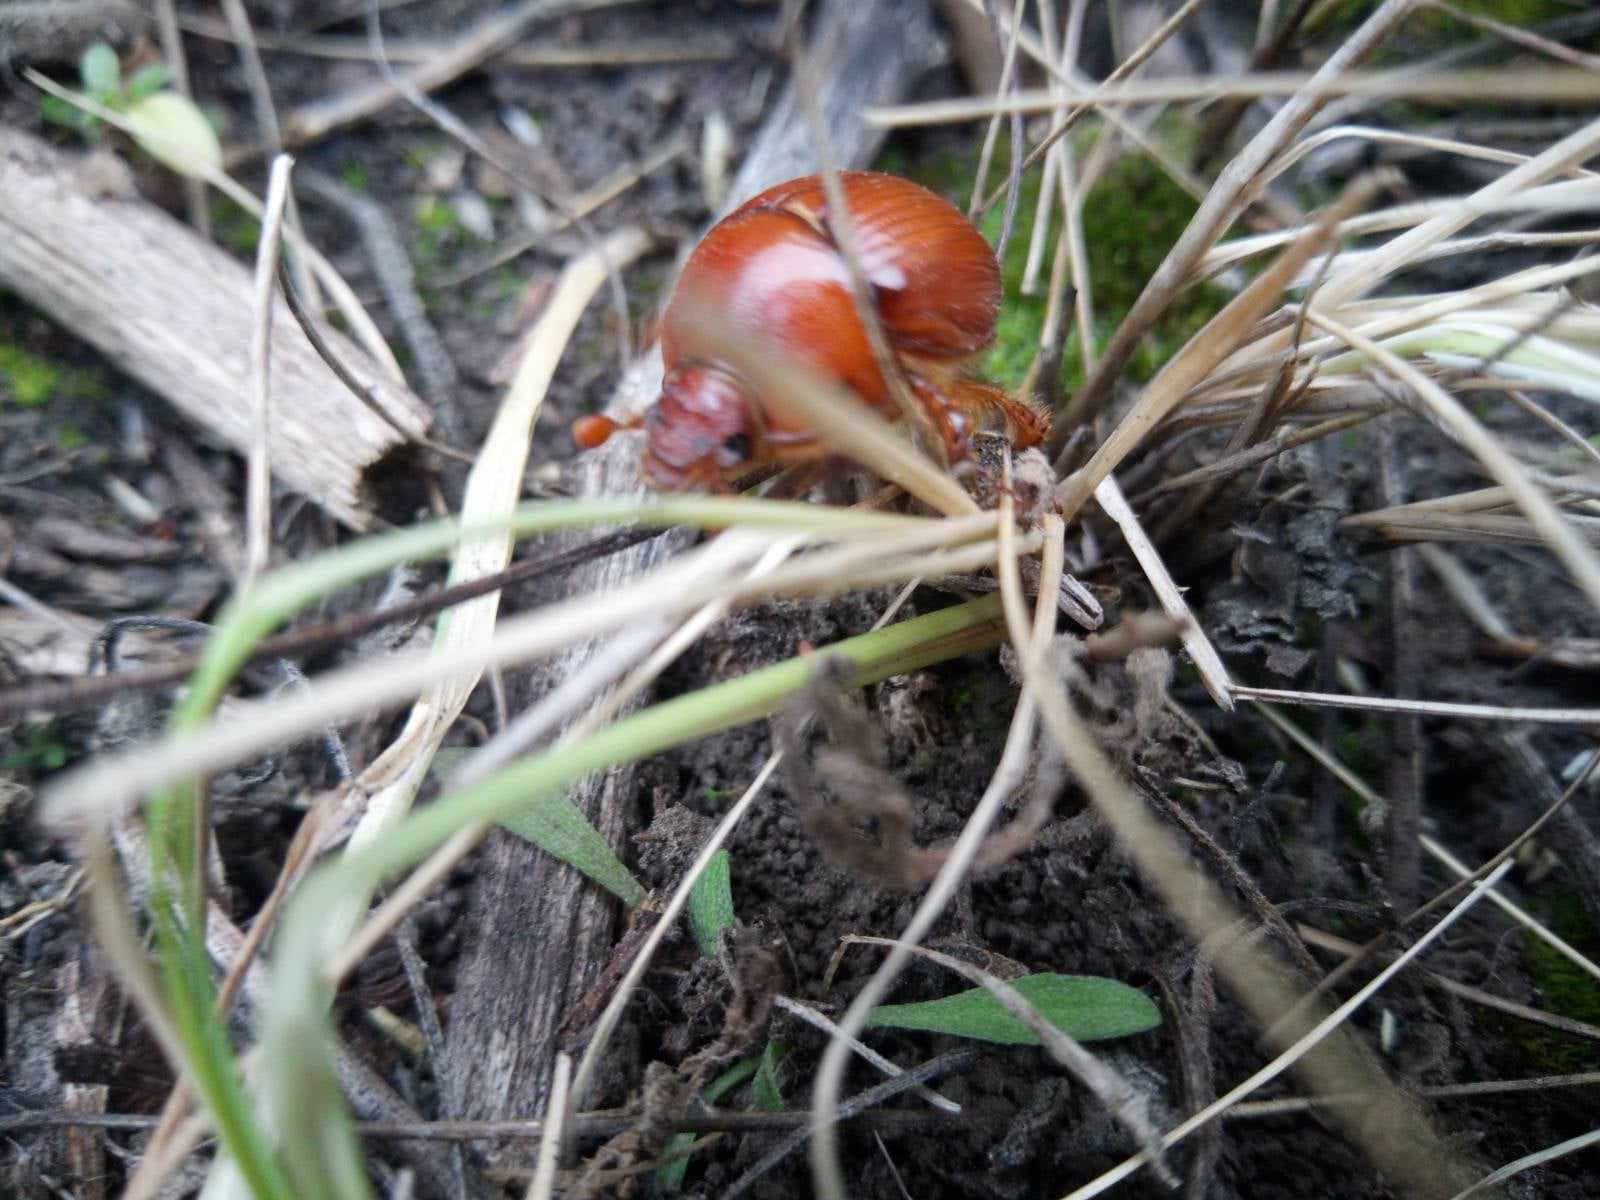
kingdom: Animalia
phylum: Arthropoda
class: Insecta
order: Coleoptera
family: Geotrupidae
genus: Bolbelasmus
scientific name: Bolbelasmus unicornis
